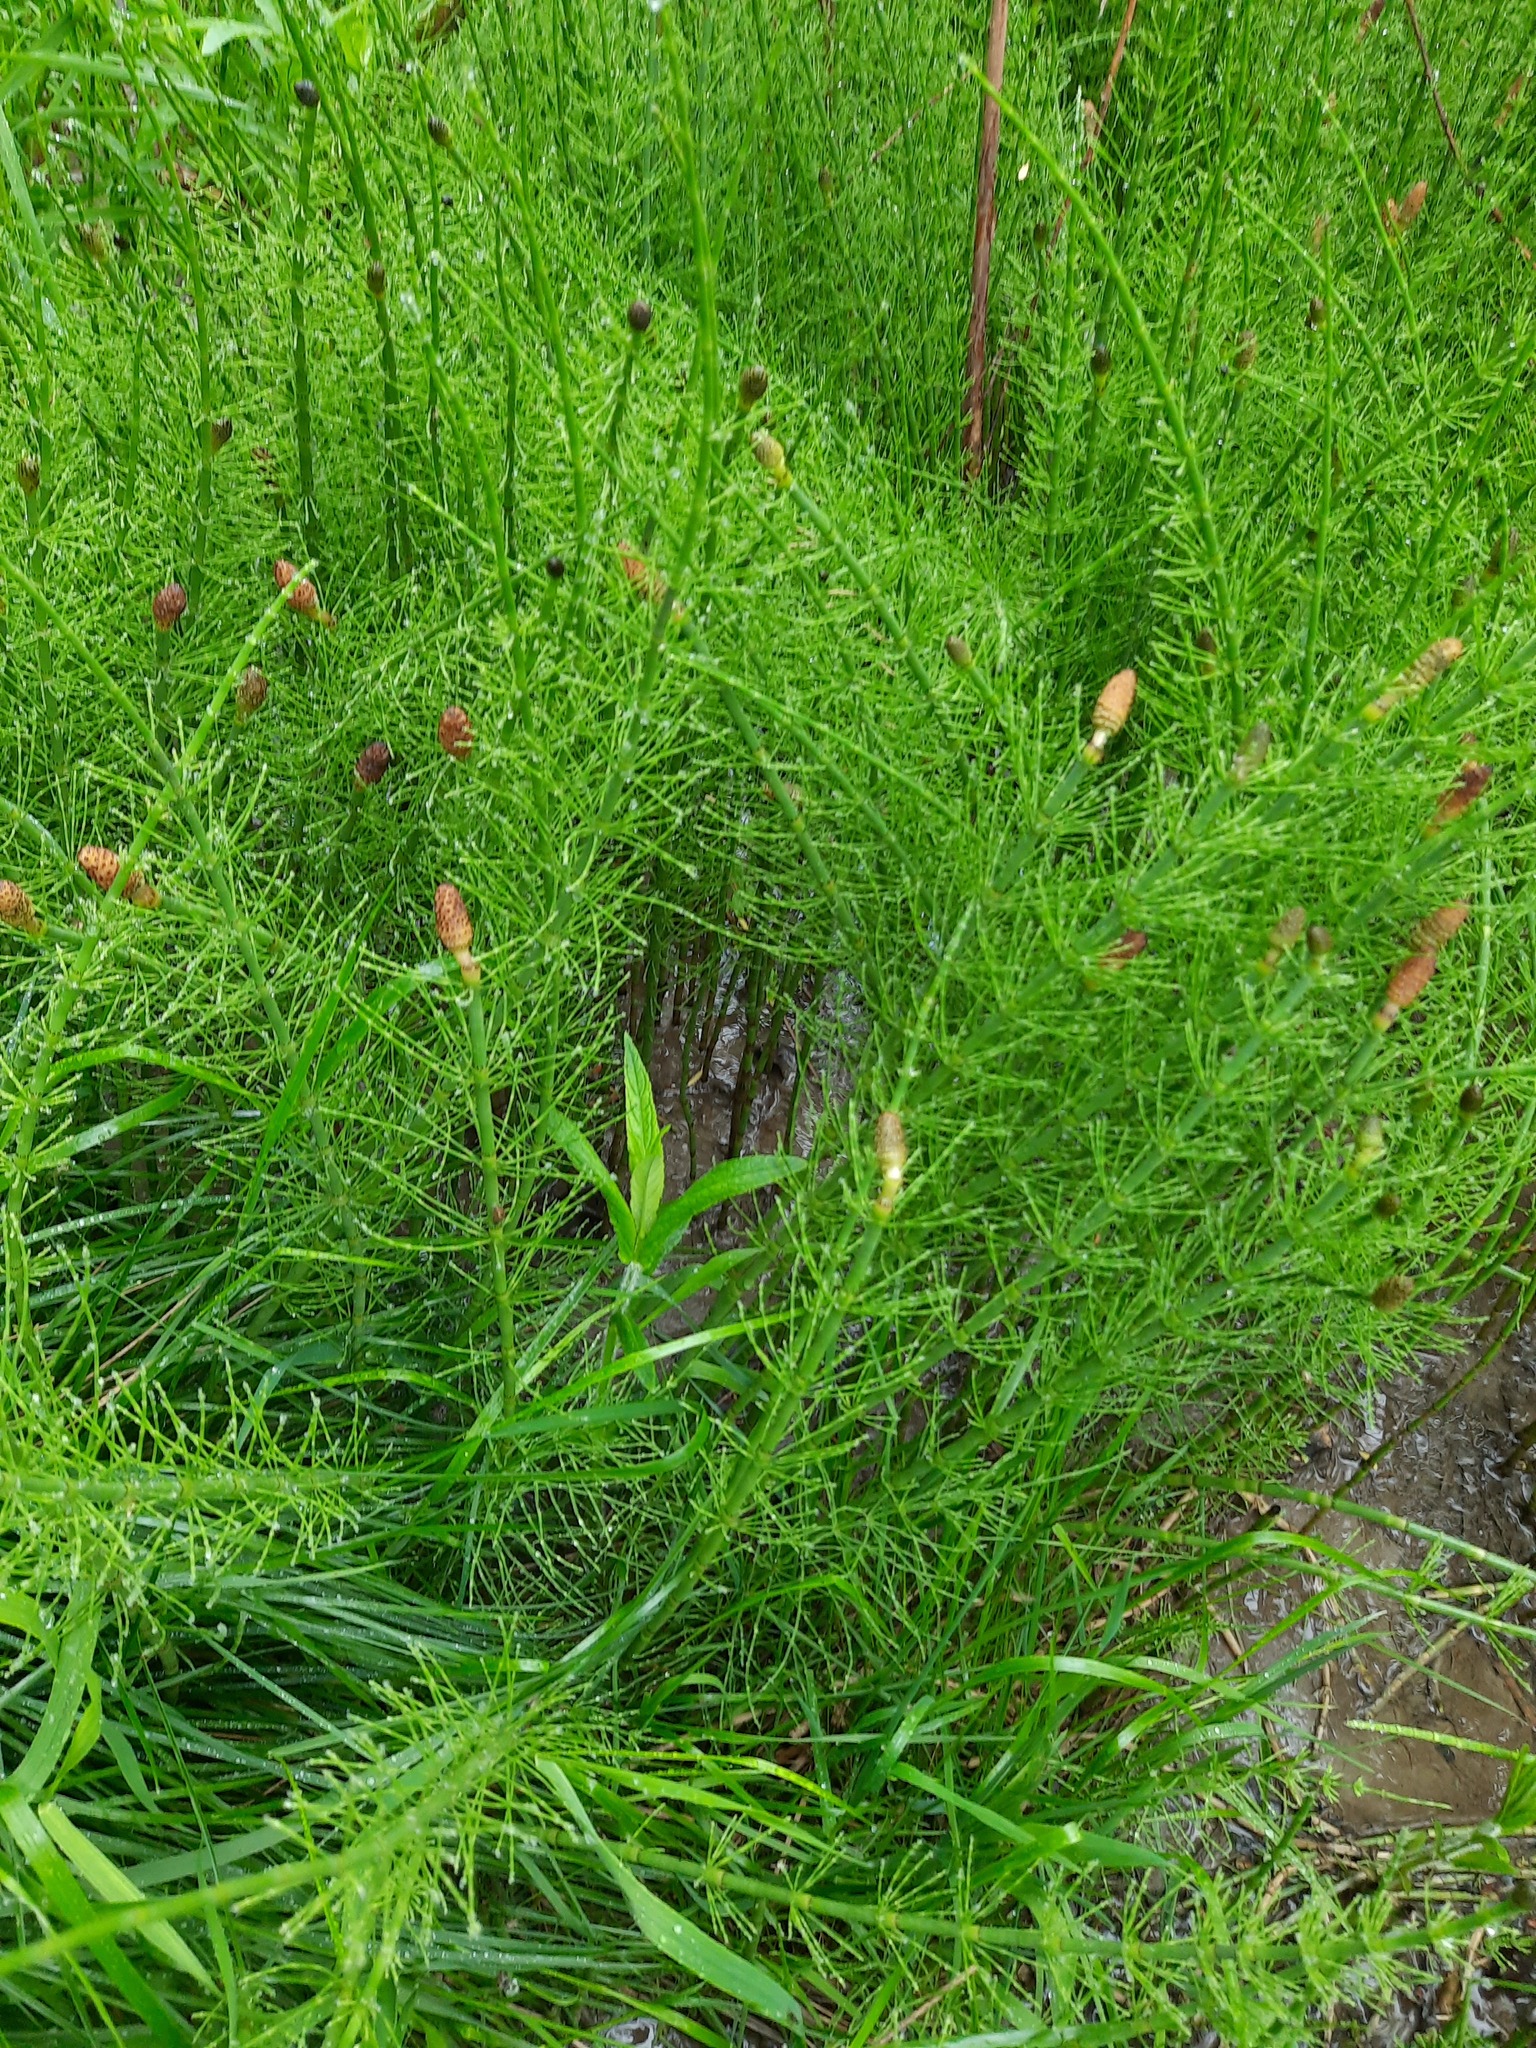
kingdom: Plantae
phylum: Tracheophyta
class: Polypodiopsida
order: Equisetales
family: Equisetaceae
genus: Equisetum
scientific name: Equisetum fluviatile
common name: Water horsetail
